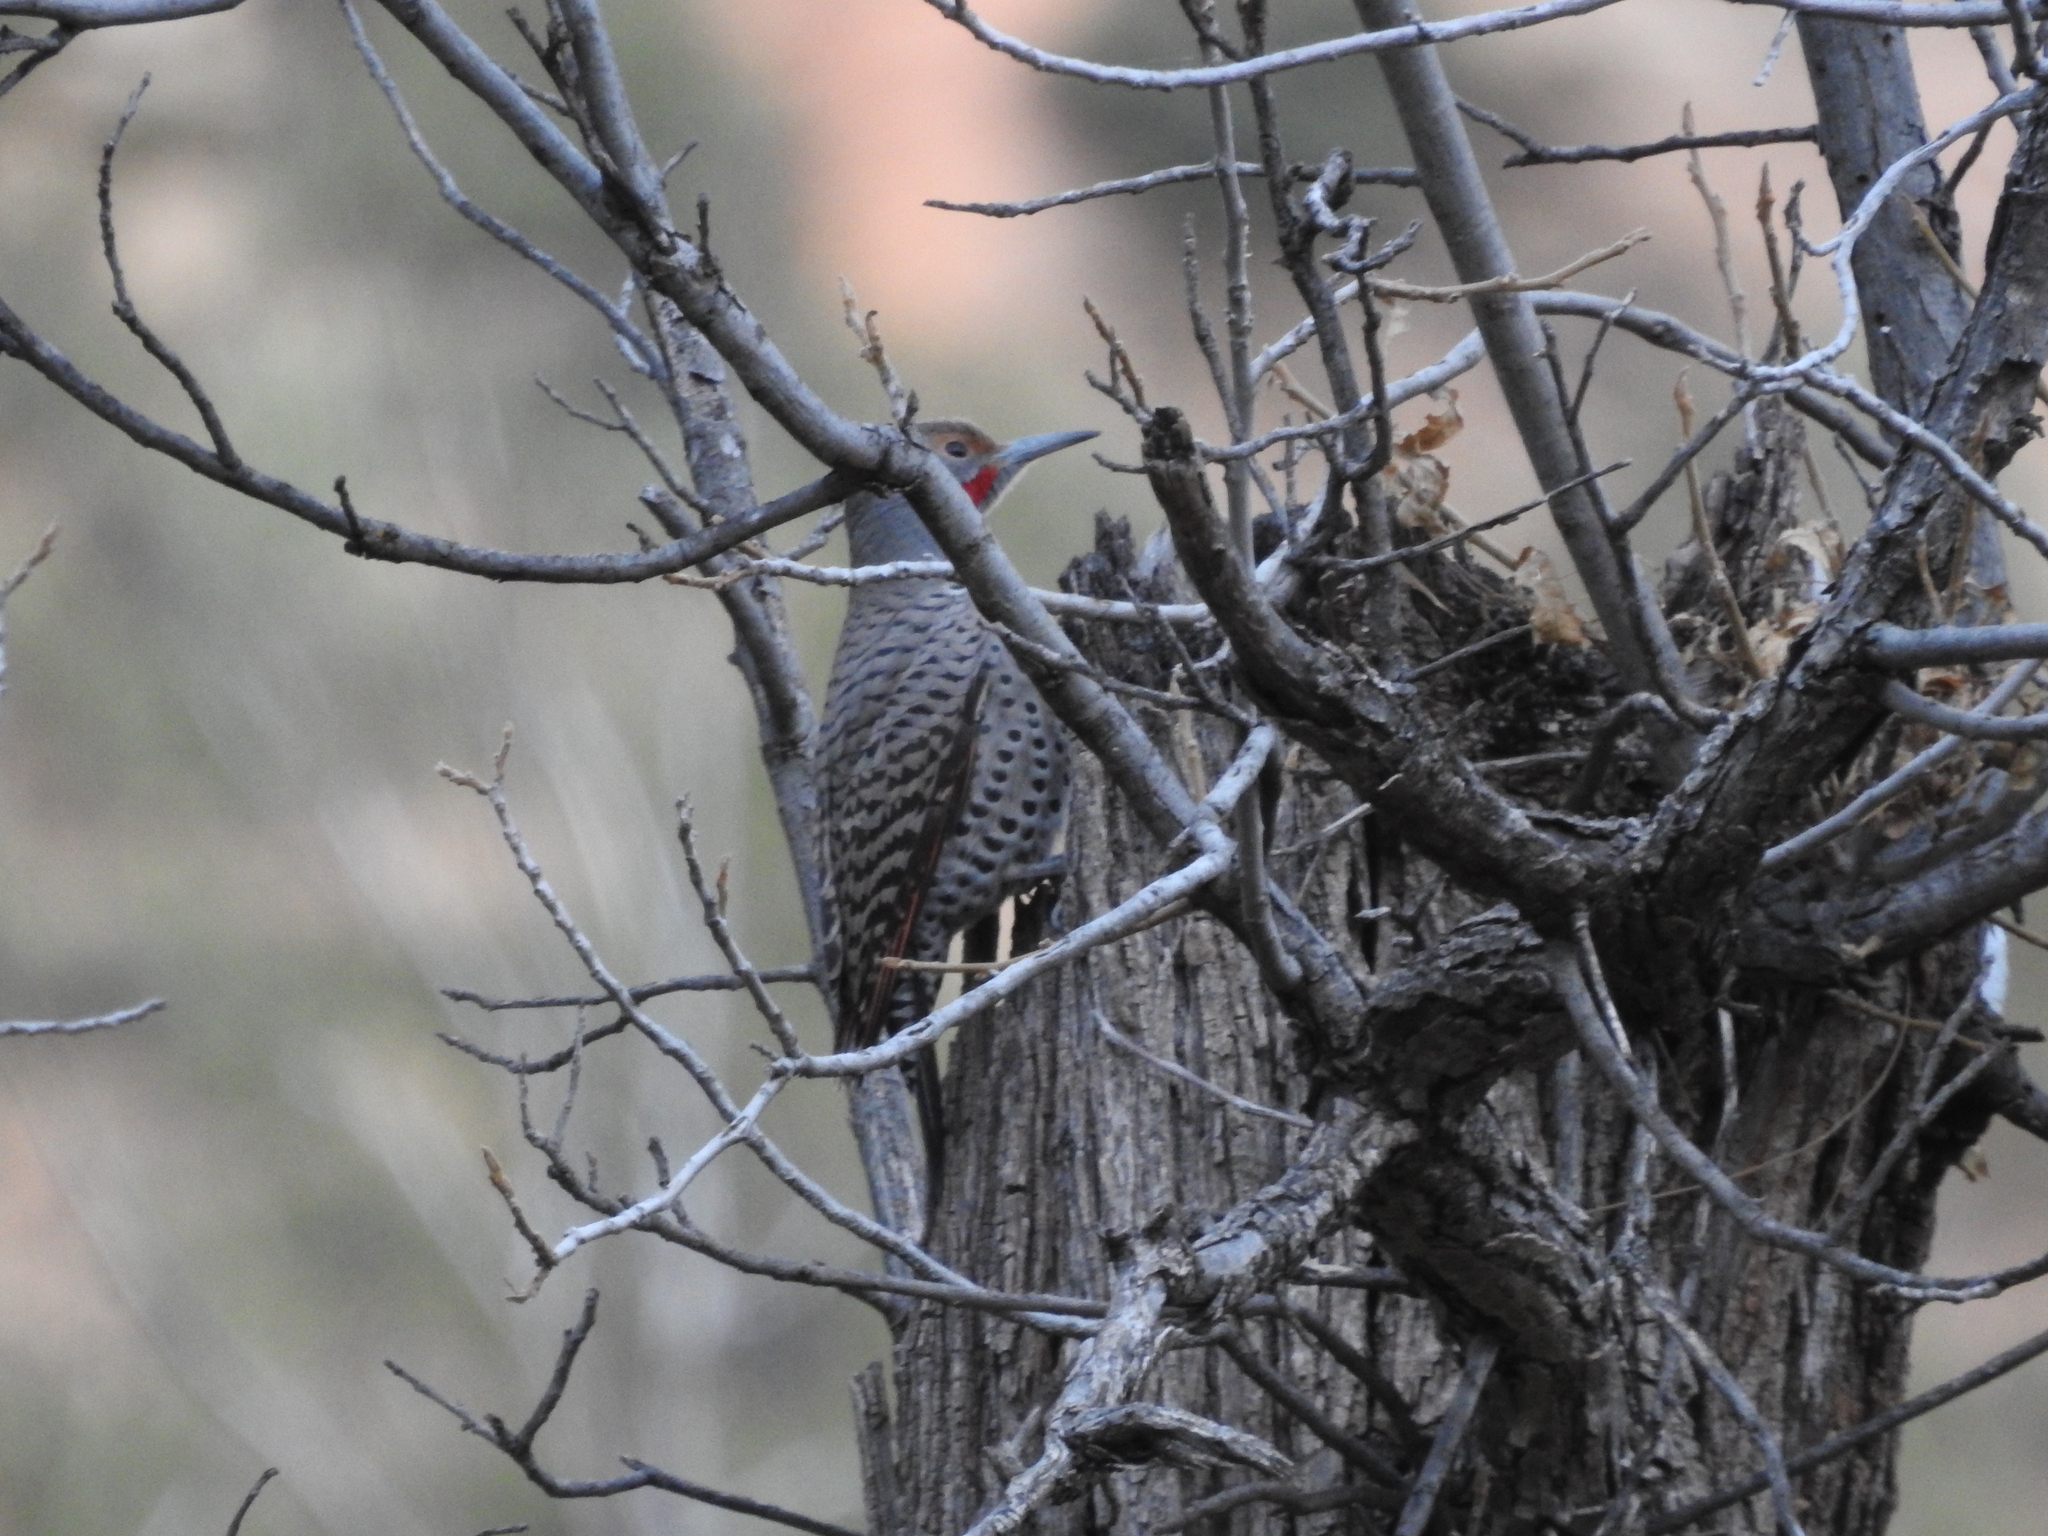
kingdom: Animalia
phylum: Chordata
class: Aves
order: Piciformes
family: Picidae
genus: Colaptes
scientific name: Colaptes auratus
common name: Northern flicker
